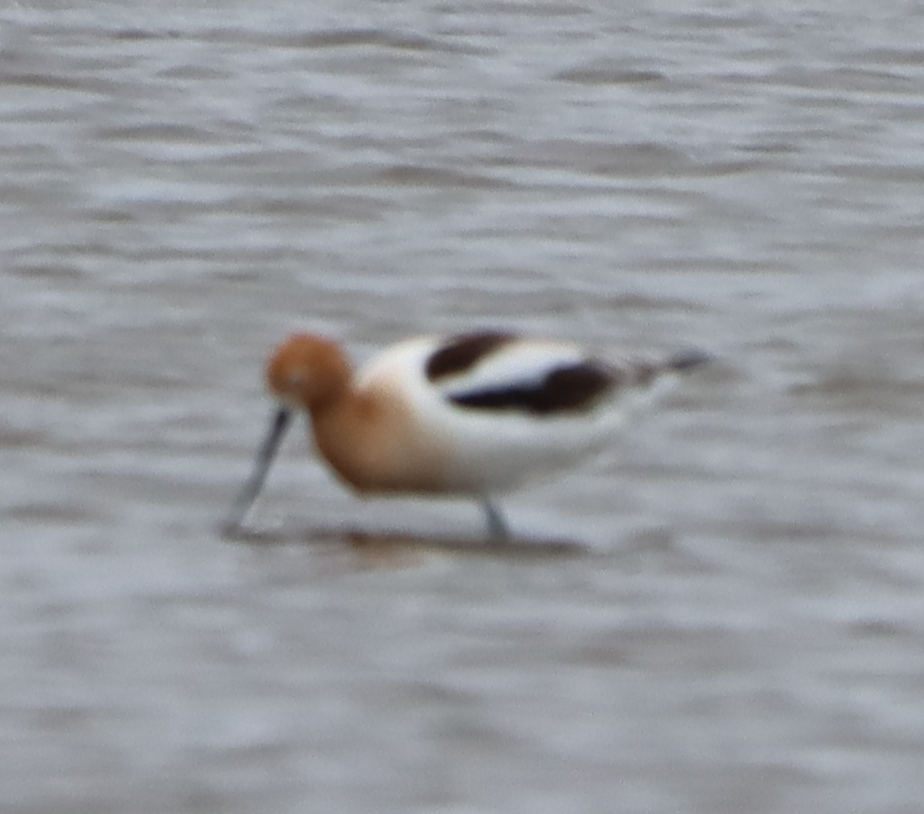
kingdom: Animalia
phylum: Chordata
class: Aves
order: Charadriiformes
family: Recurvirostridae
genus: Recurvirostra
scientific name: Recurvirostra americana
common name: American avocet
